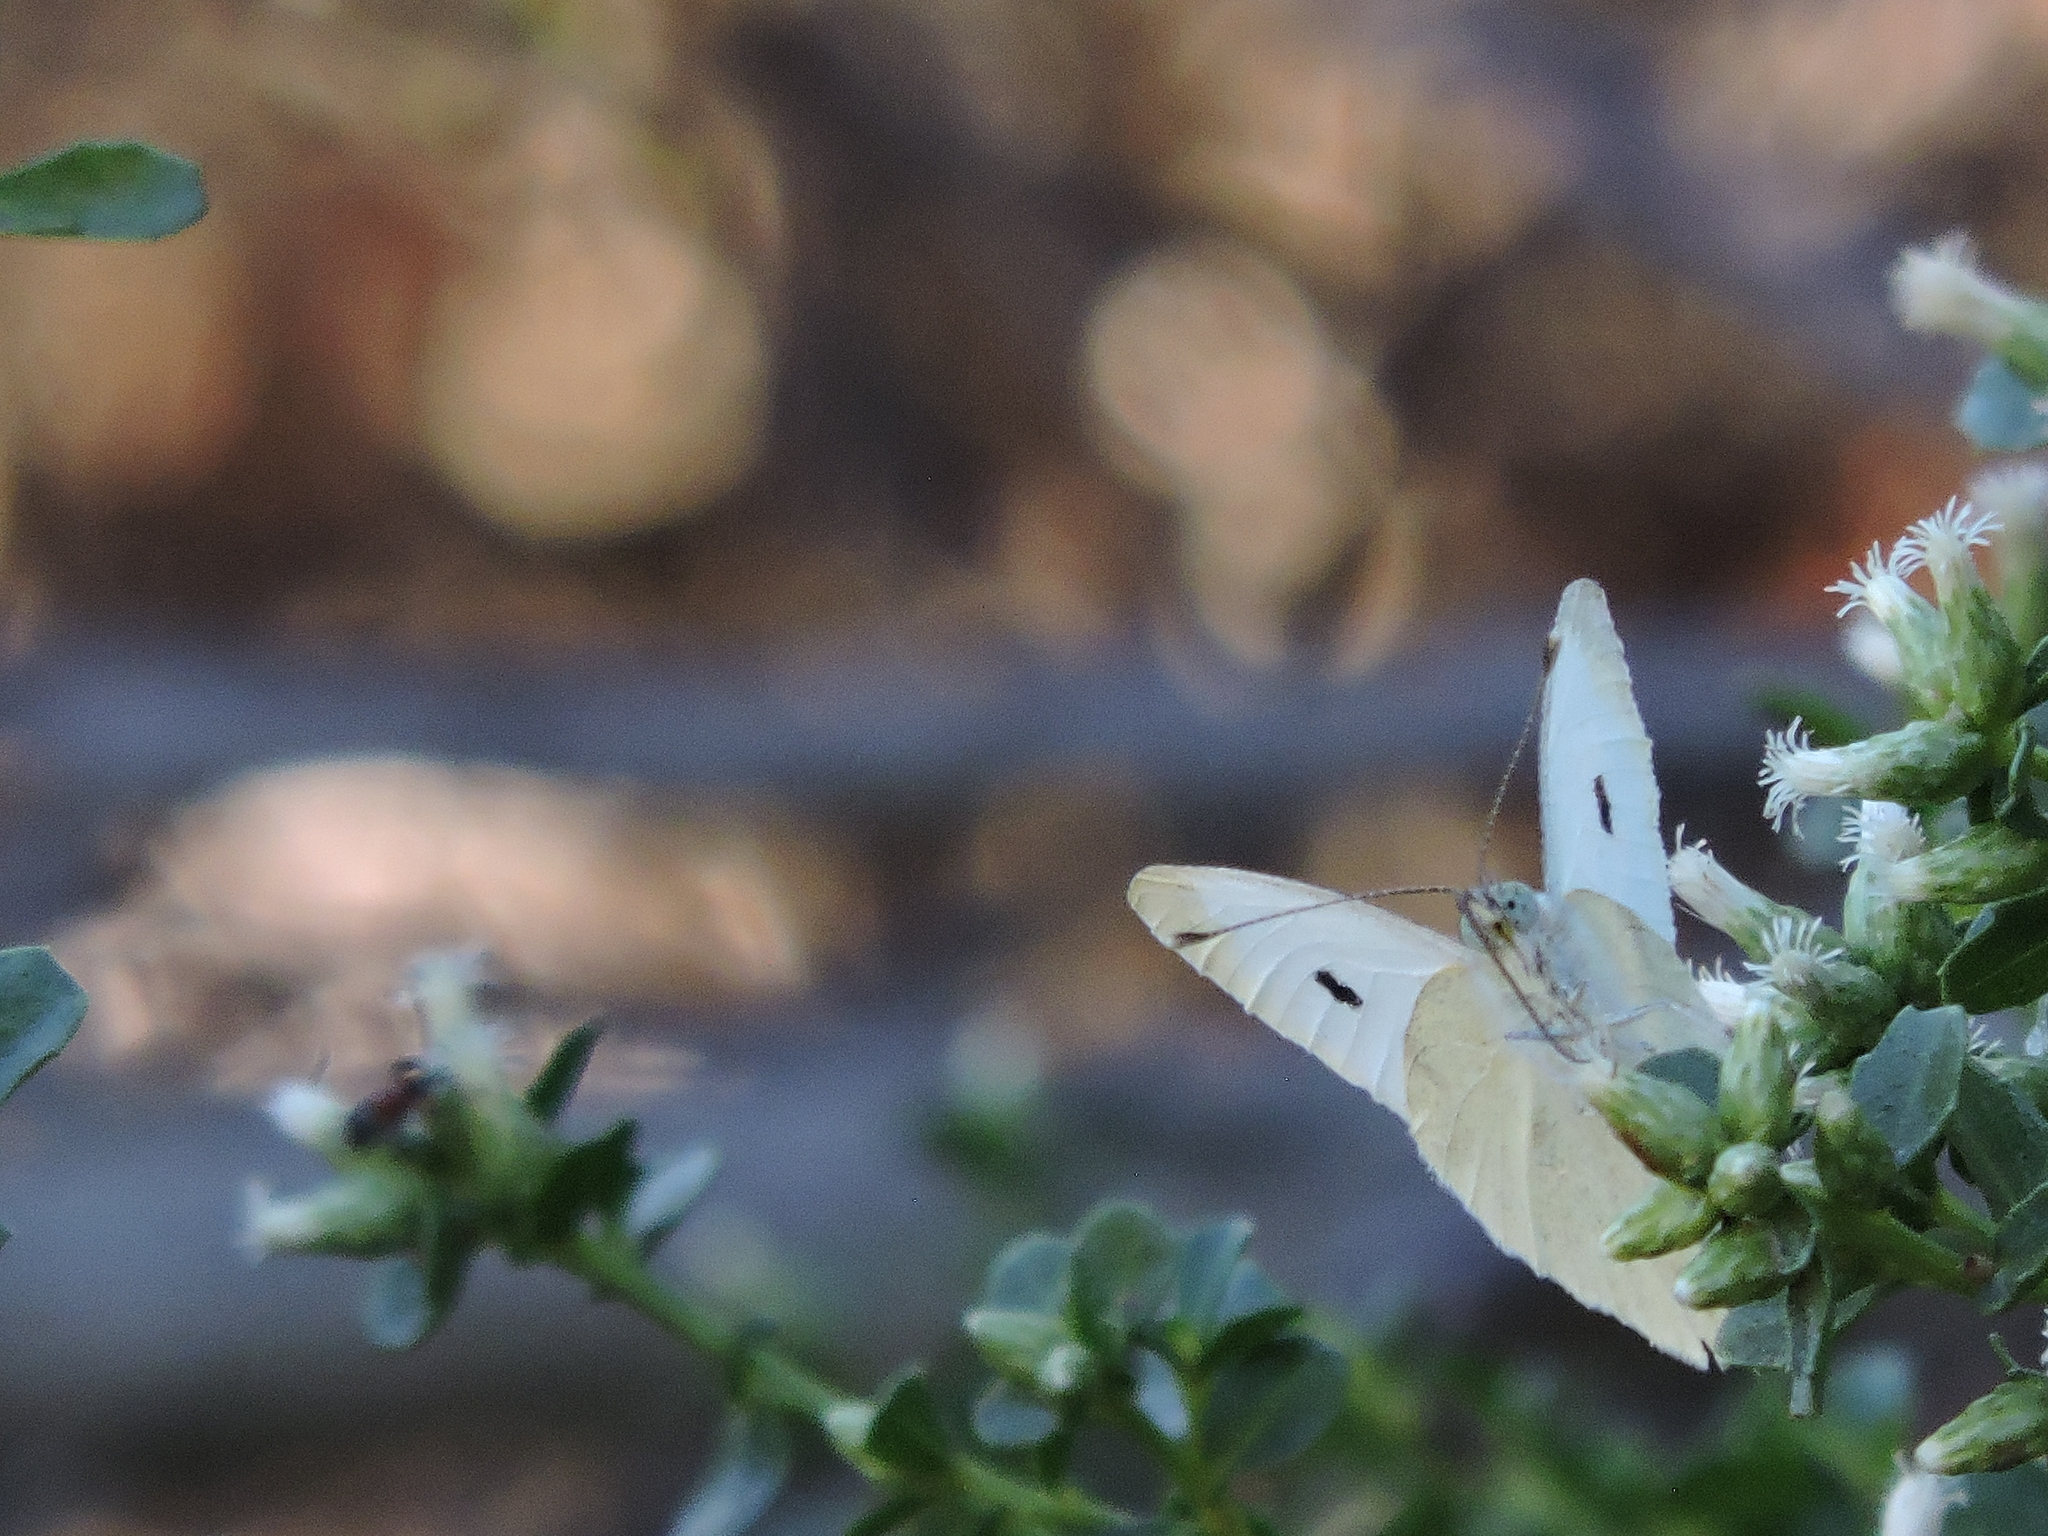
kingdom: Animalia
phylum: Arthropoda
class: Insecta
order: Lepidoptera
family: Pieridae
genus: Pieris
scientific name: Pieris rapae
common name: Small white
